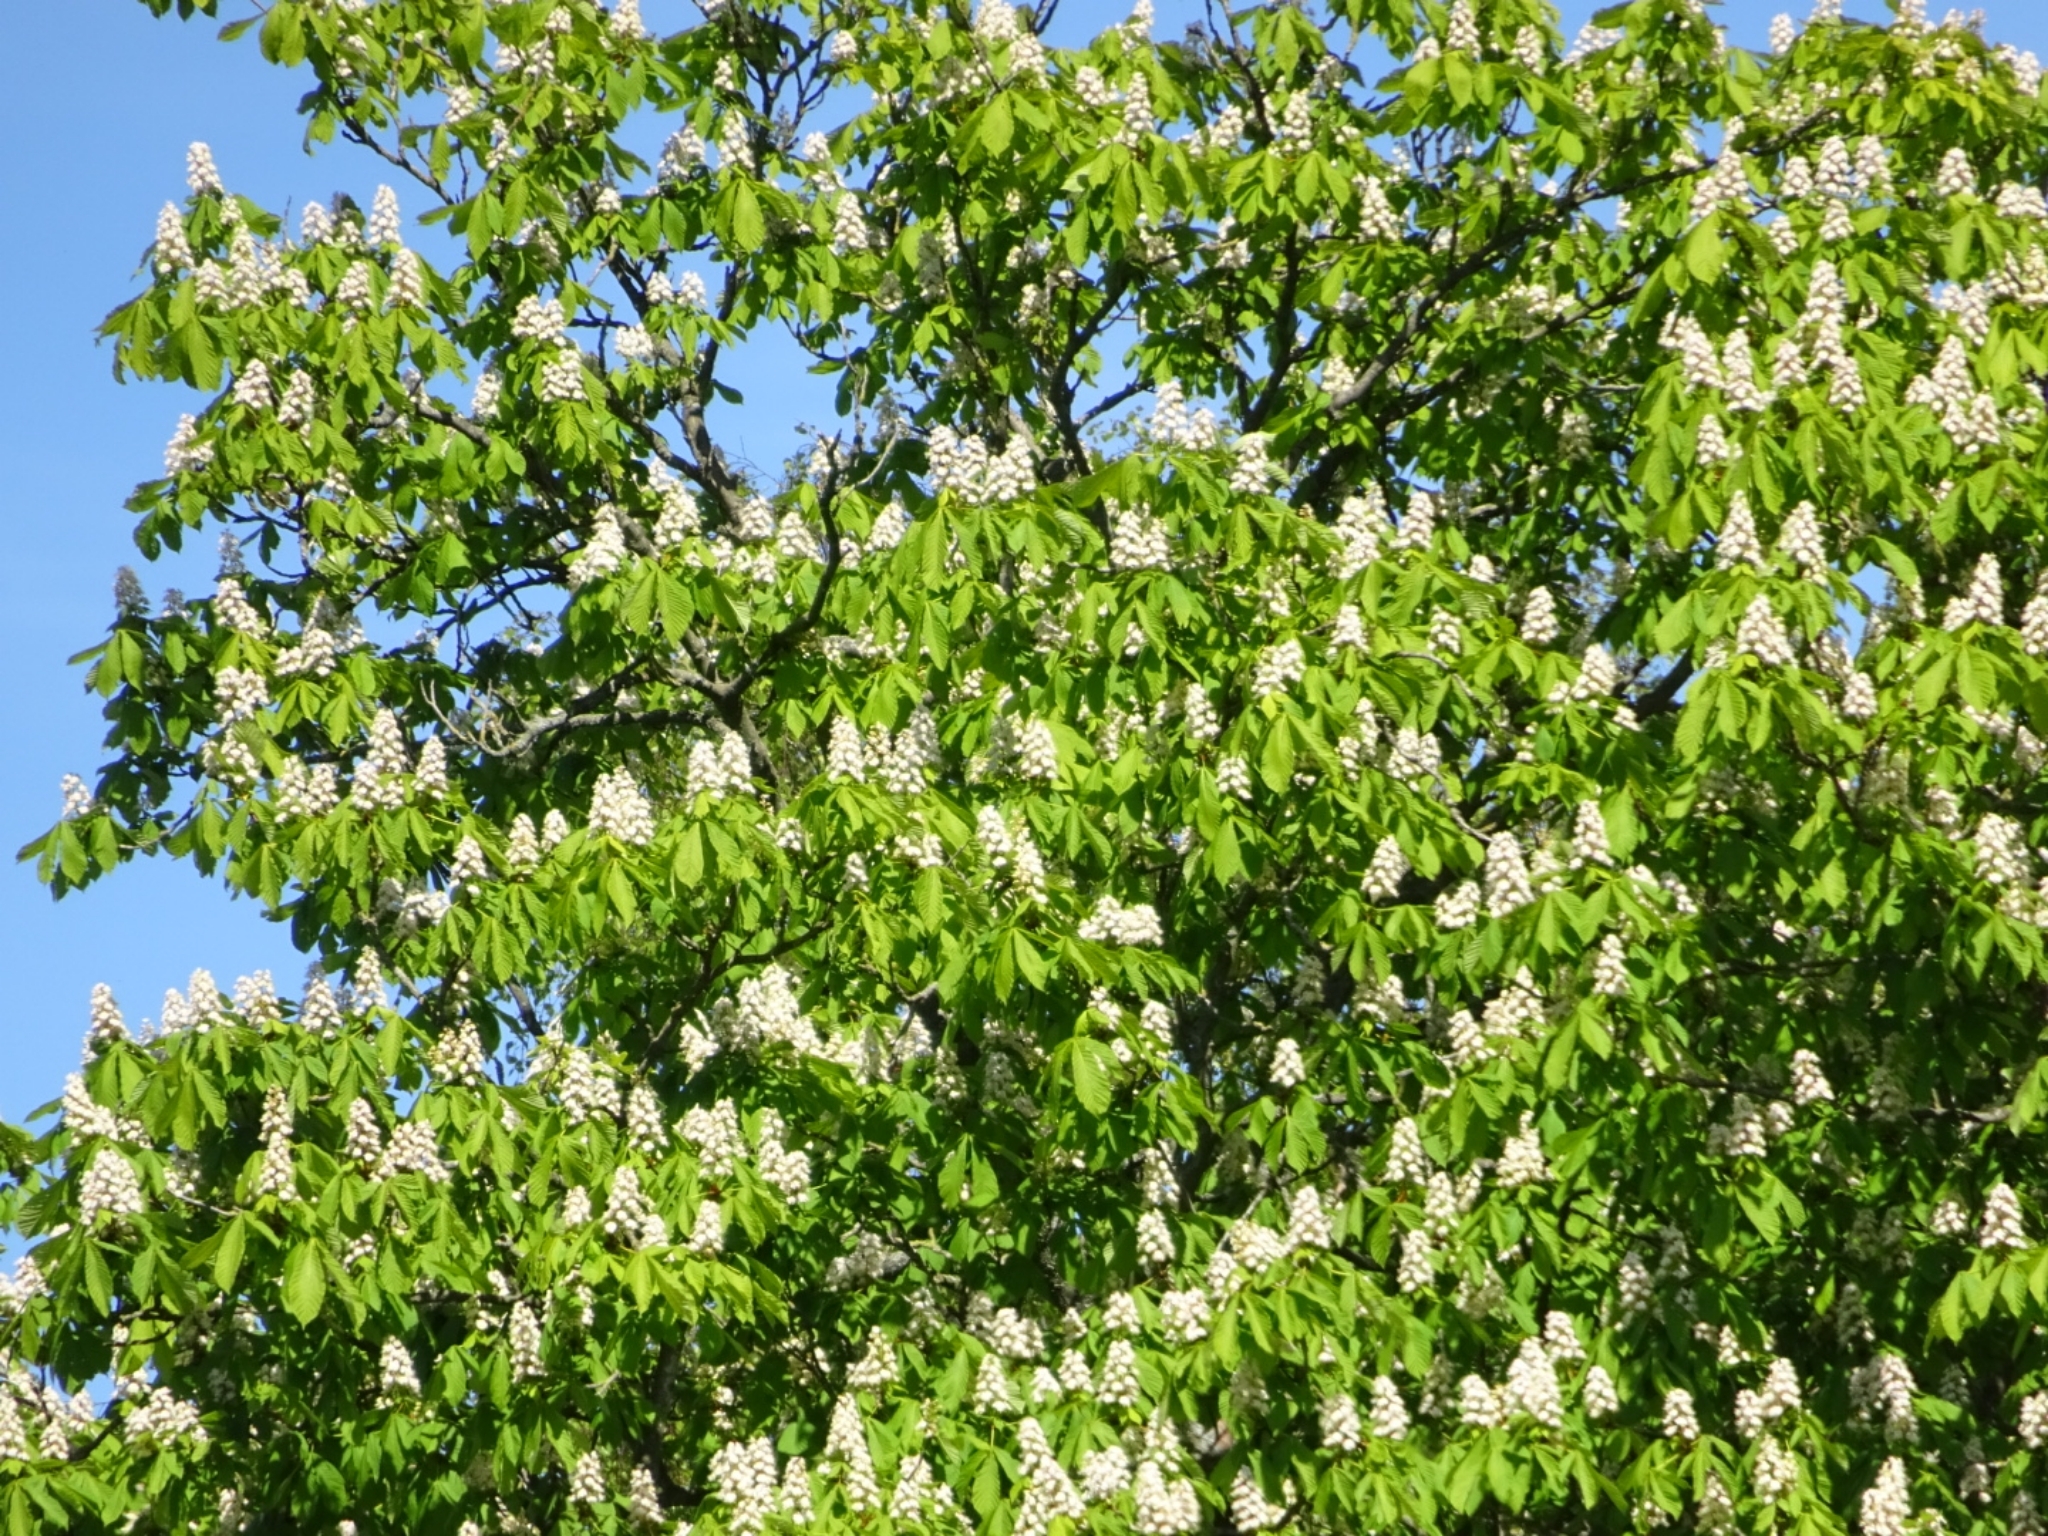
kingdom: Plantae
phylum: Tracheophyta
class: Magnoliopsida
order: Sapindales
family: Sapindaceae
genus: Aesculus
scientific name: Aesculus hippocastanum
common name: Horse-chestnut
